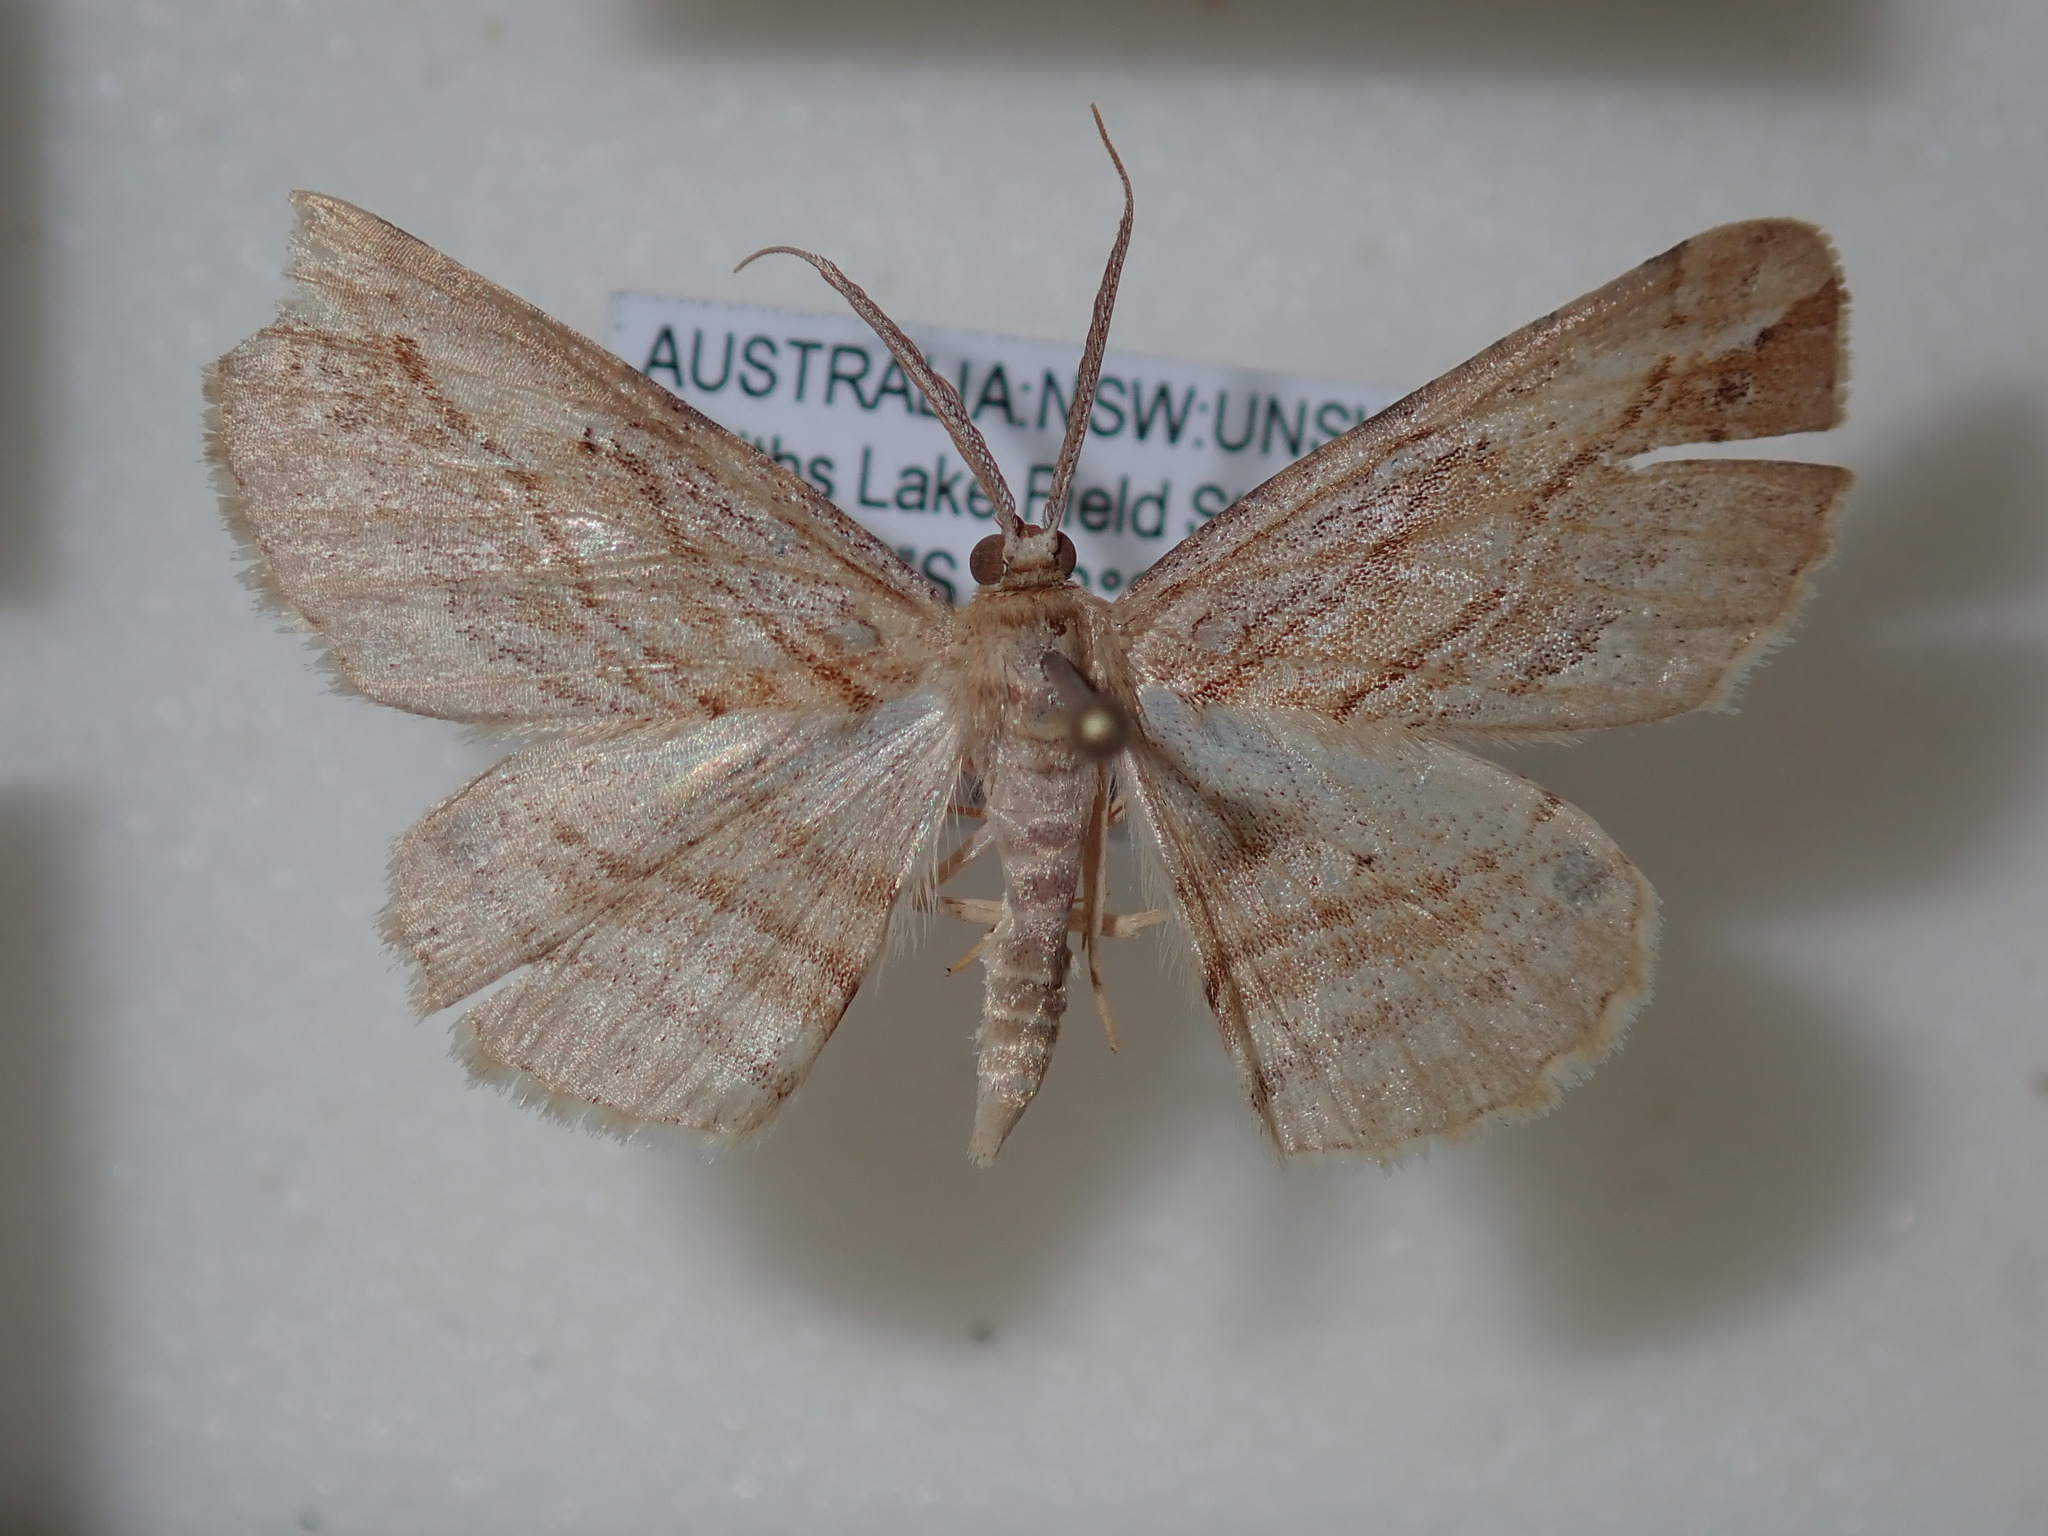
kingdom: Animalia
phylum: Arthropoda
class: Insecta
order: Lepidoptera
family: Geometridae
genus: Syneora
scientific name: Syneora lithina
